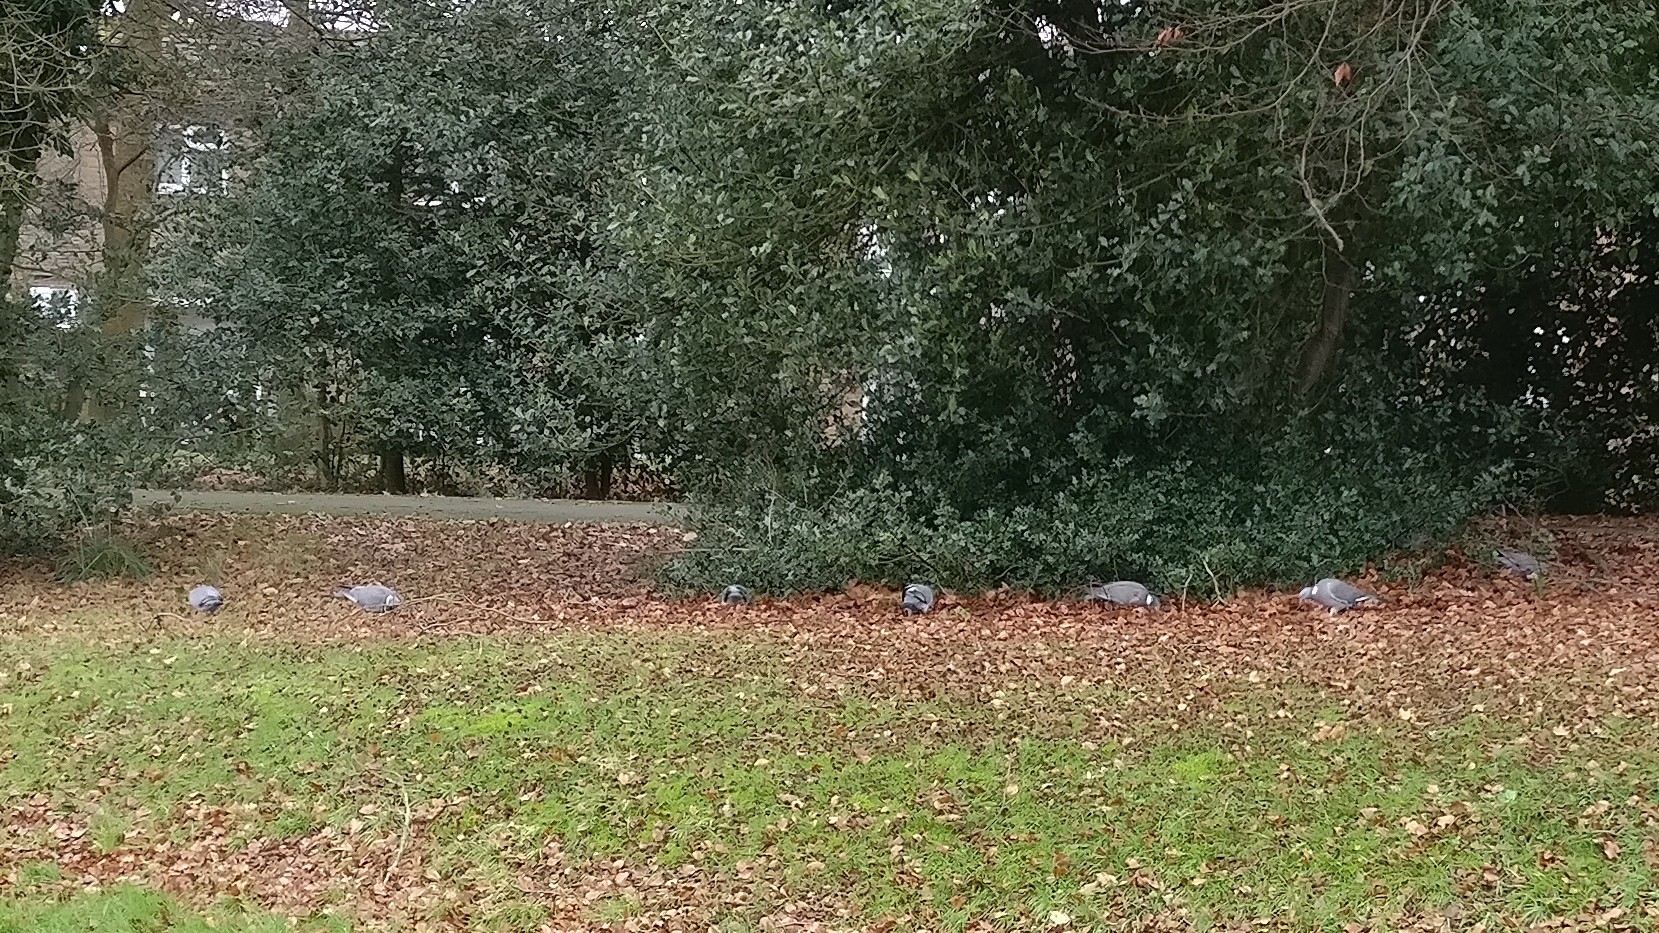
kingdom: Animalia
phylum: Chordata
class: Aves
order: Columbiformes
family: Columbidae
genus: Columba
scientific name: Columba palumbus
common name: Common wood pigeon
